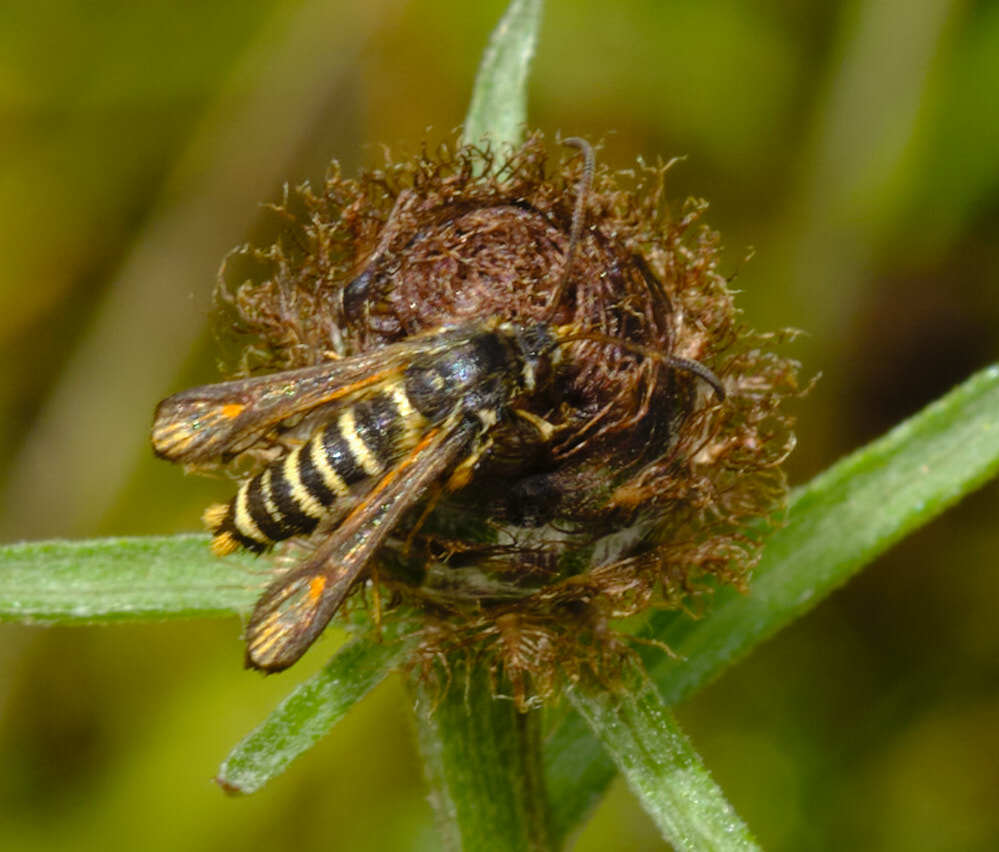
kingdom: Animalia
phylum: Arthropoda
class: Insecta
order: Lepidoptera
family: Sesiidae
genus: Bembecia
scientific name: Bembecia ichneumoniformis
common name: Six-belted clearwing
